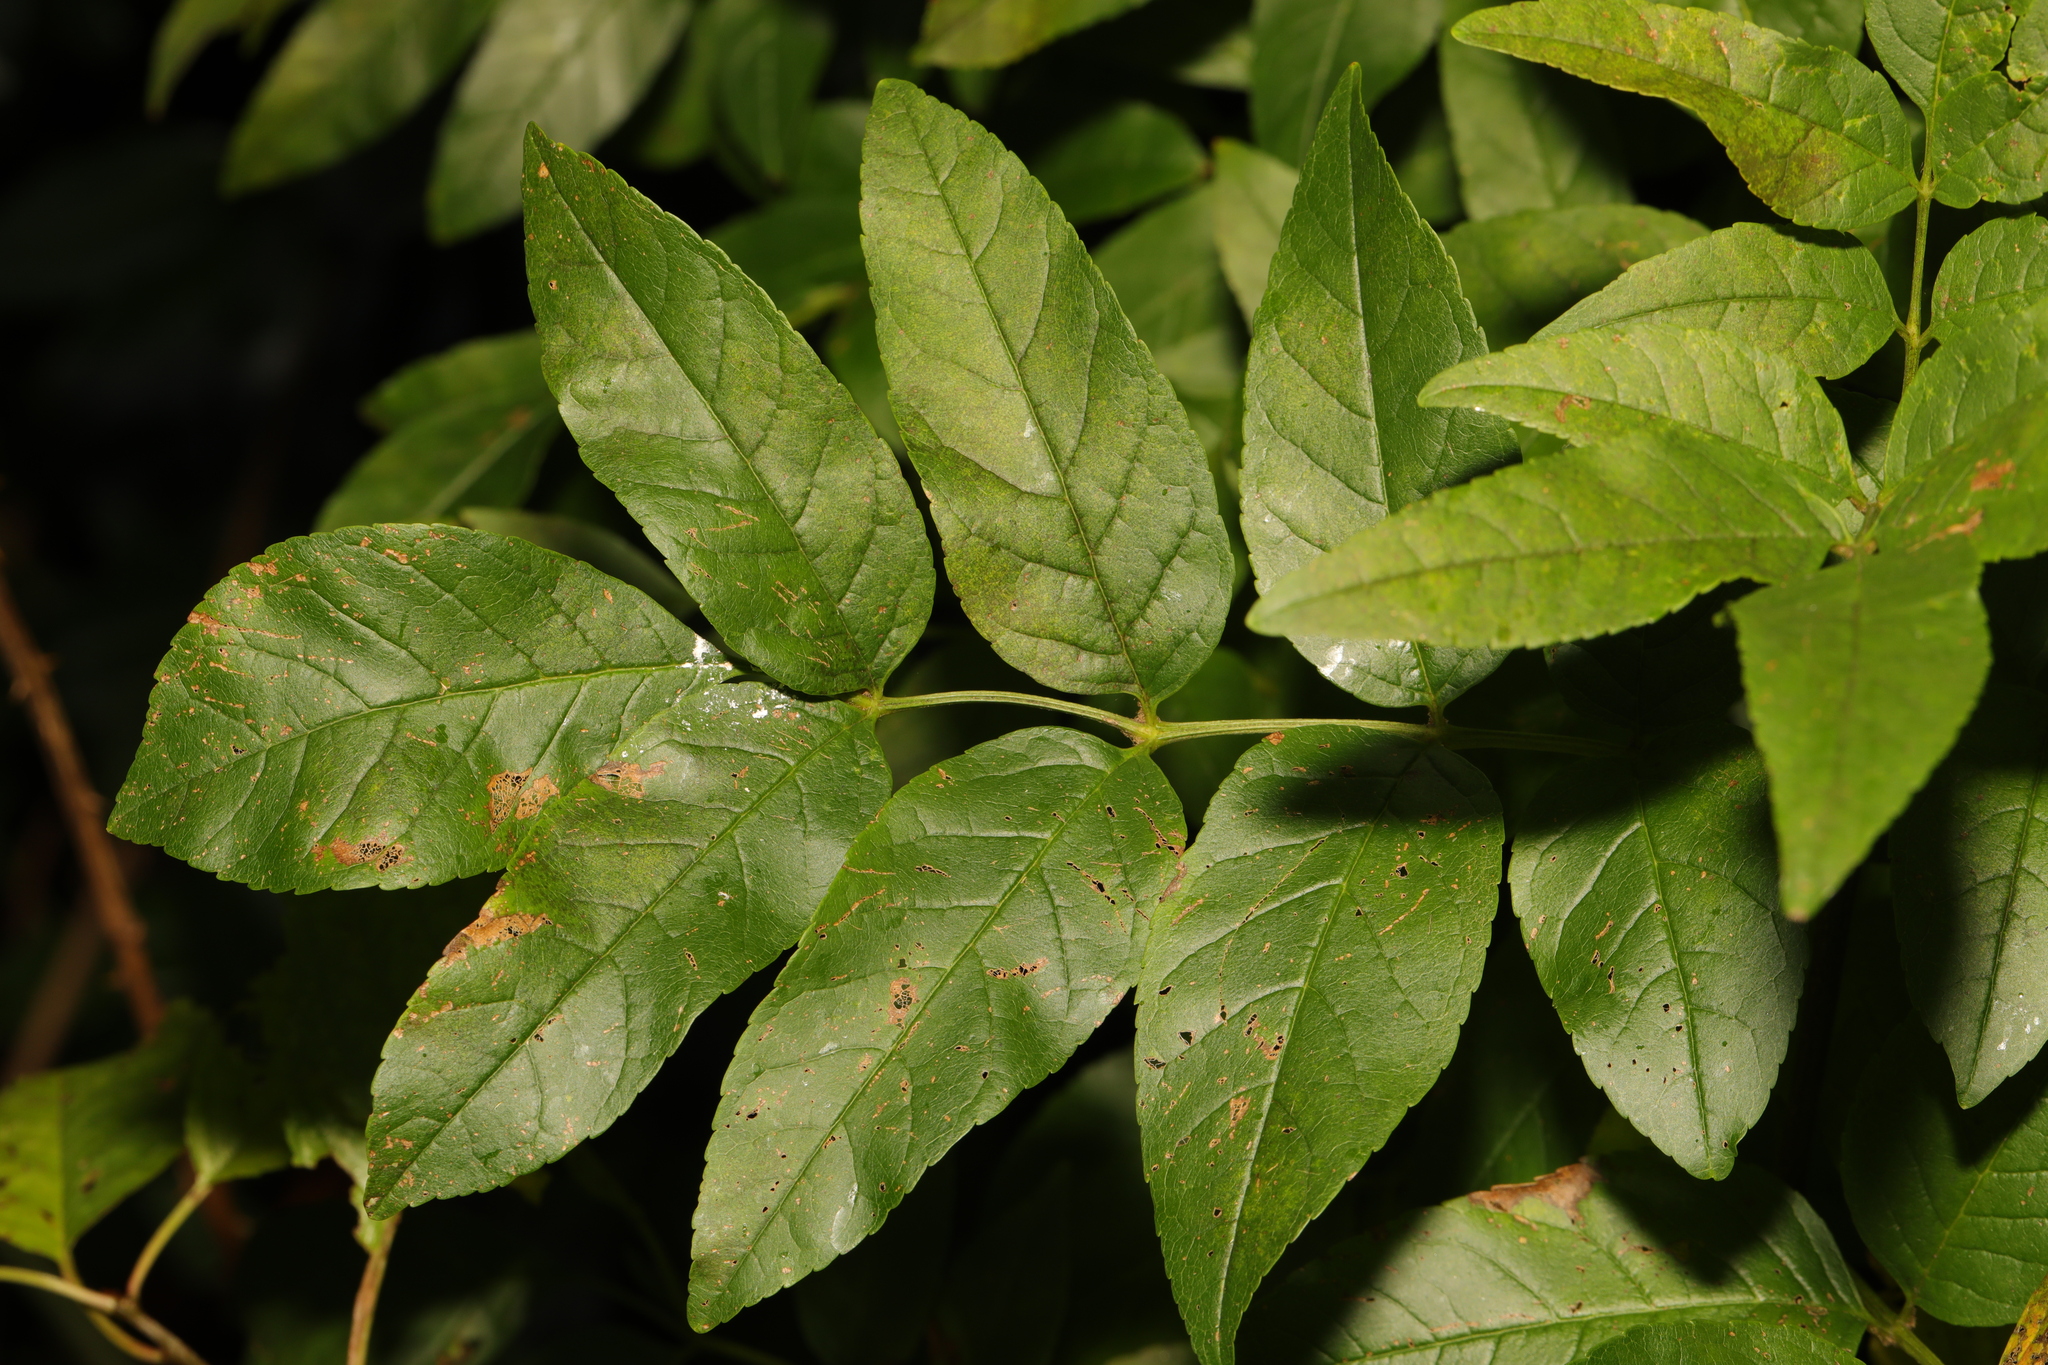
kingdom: Plantae
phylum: Tracheophyta
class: Magnoliopsida
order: Lamiales
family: Oleaceae
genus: Fraxinus
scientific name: Fraxinus excelsior
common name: European ash
